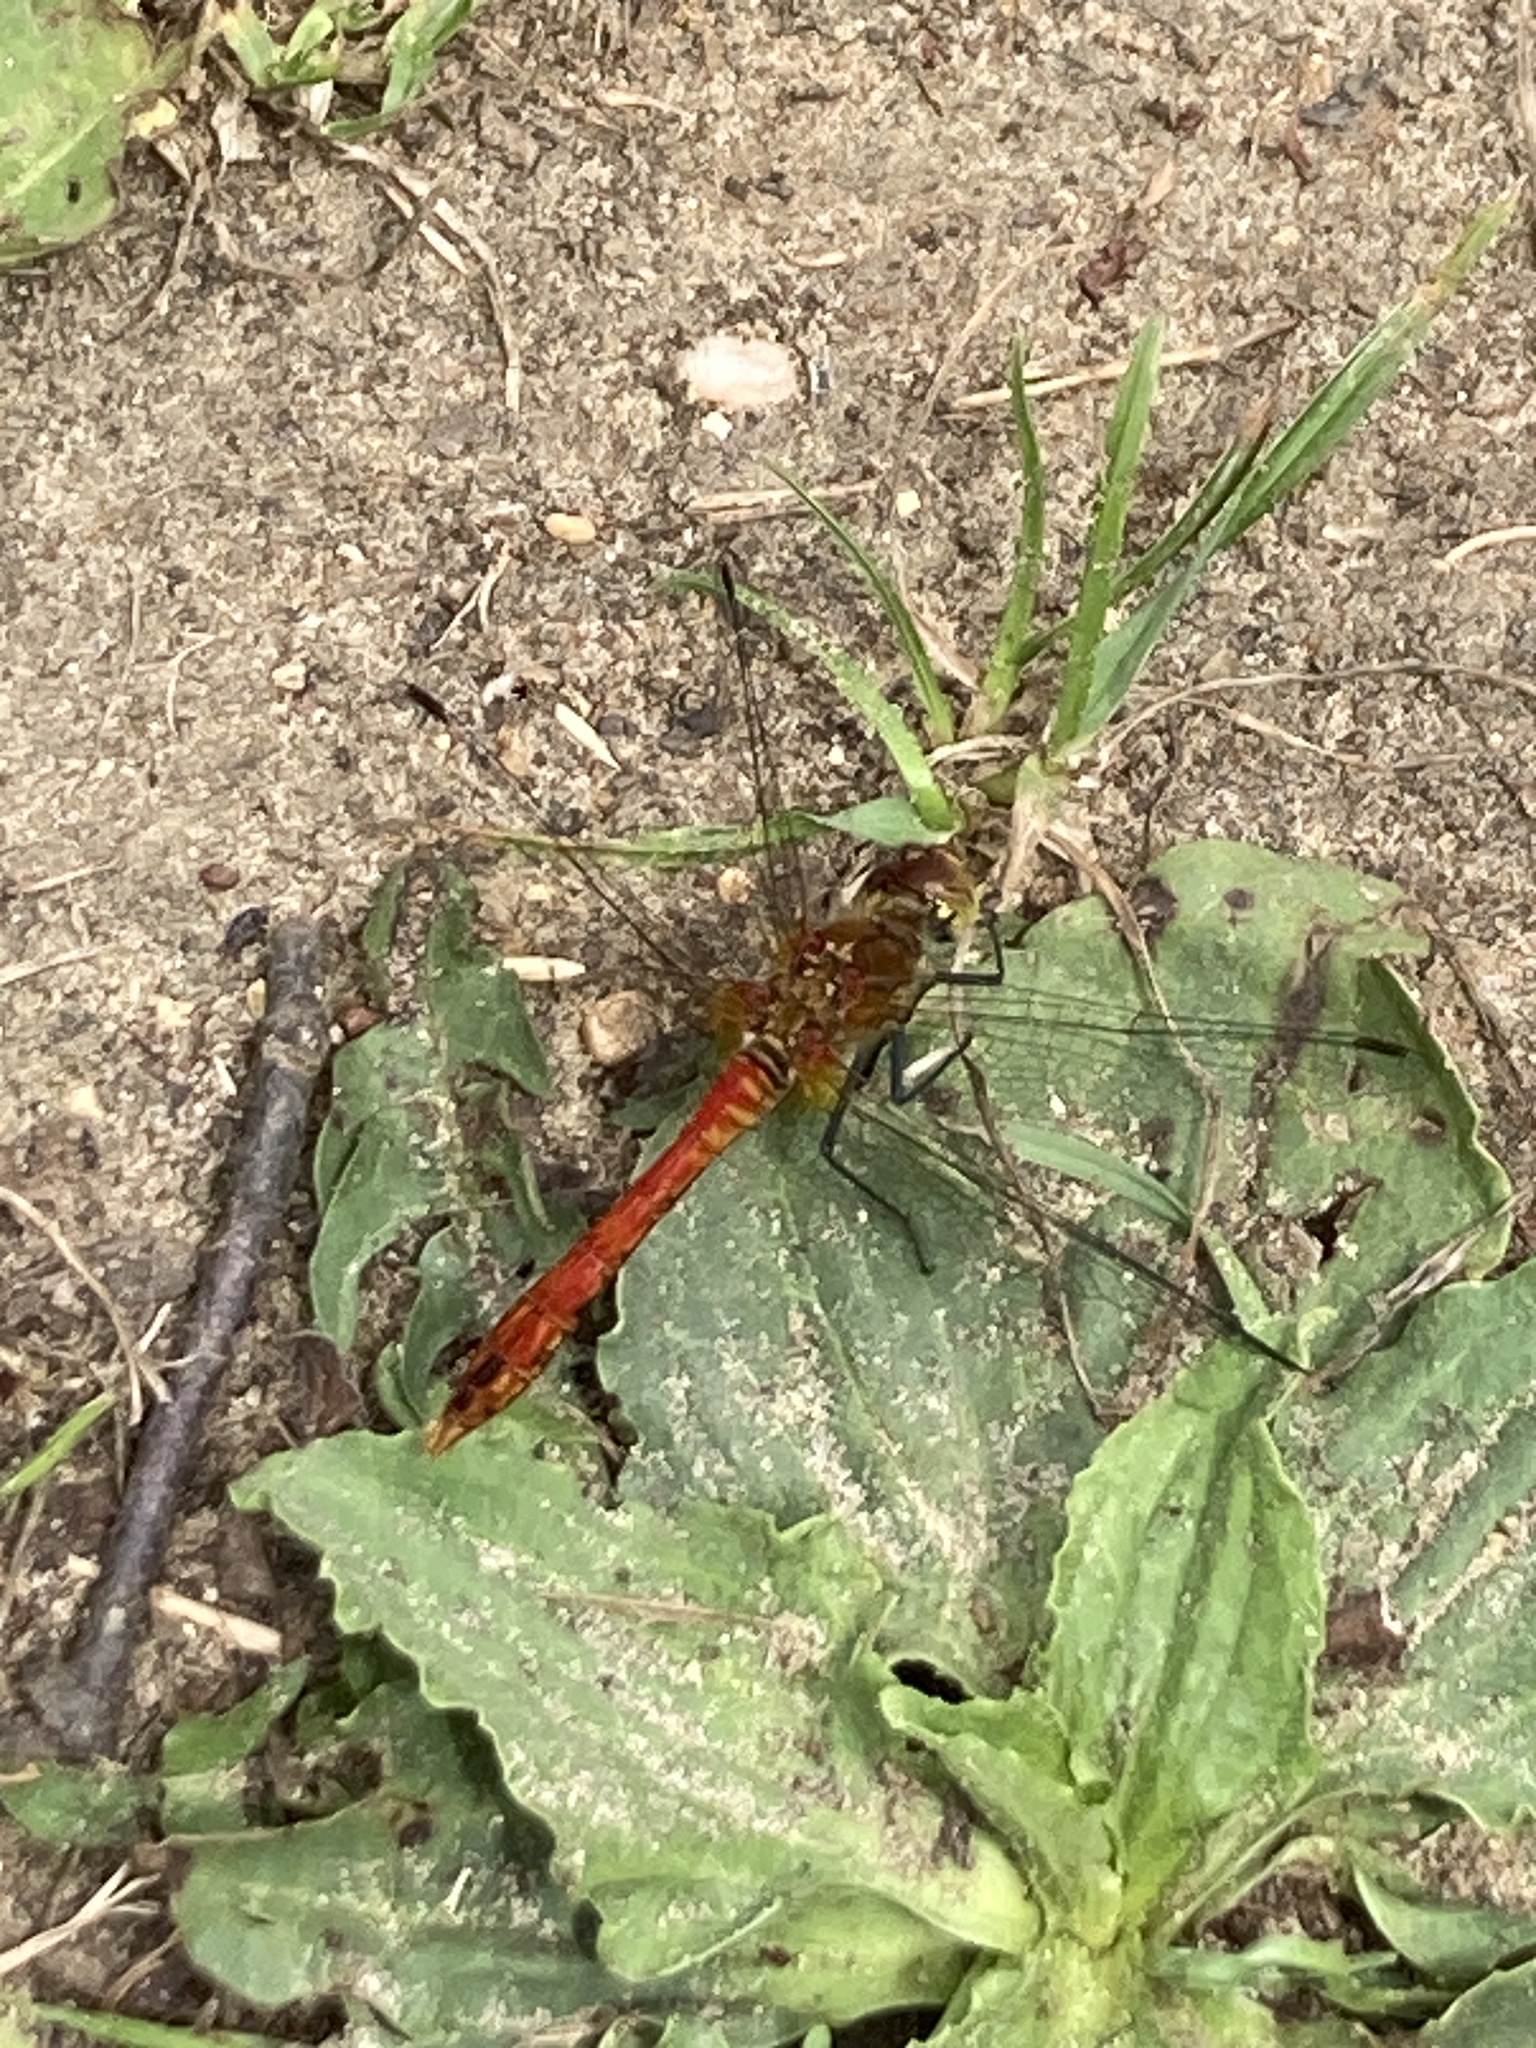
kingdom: Animalia
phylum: Arthropoda
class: Insecta
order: Odonata
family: Libellulidae
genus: Sympetrum
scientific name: Sympetrum sanguineum
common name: Ruddy darter
